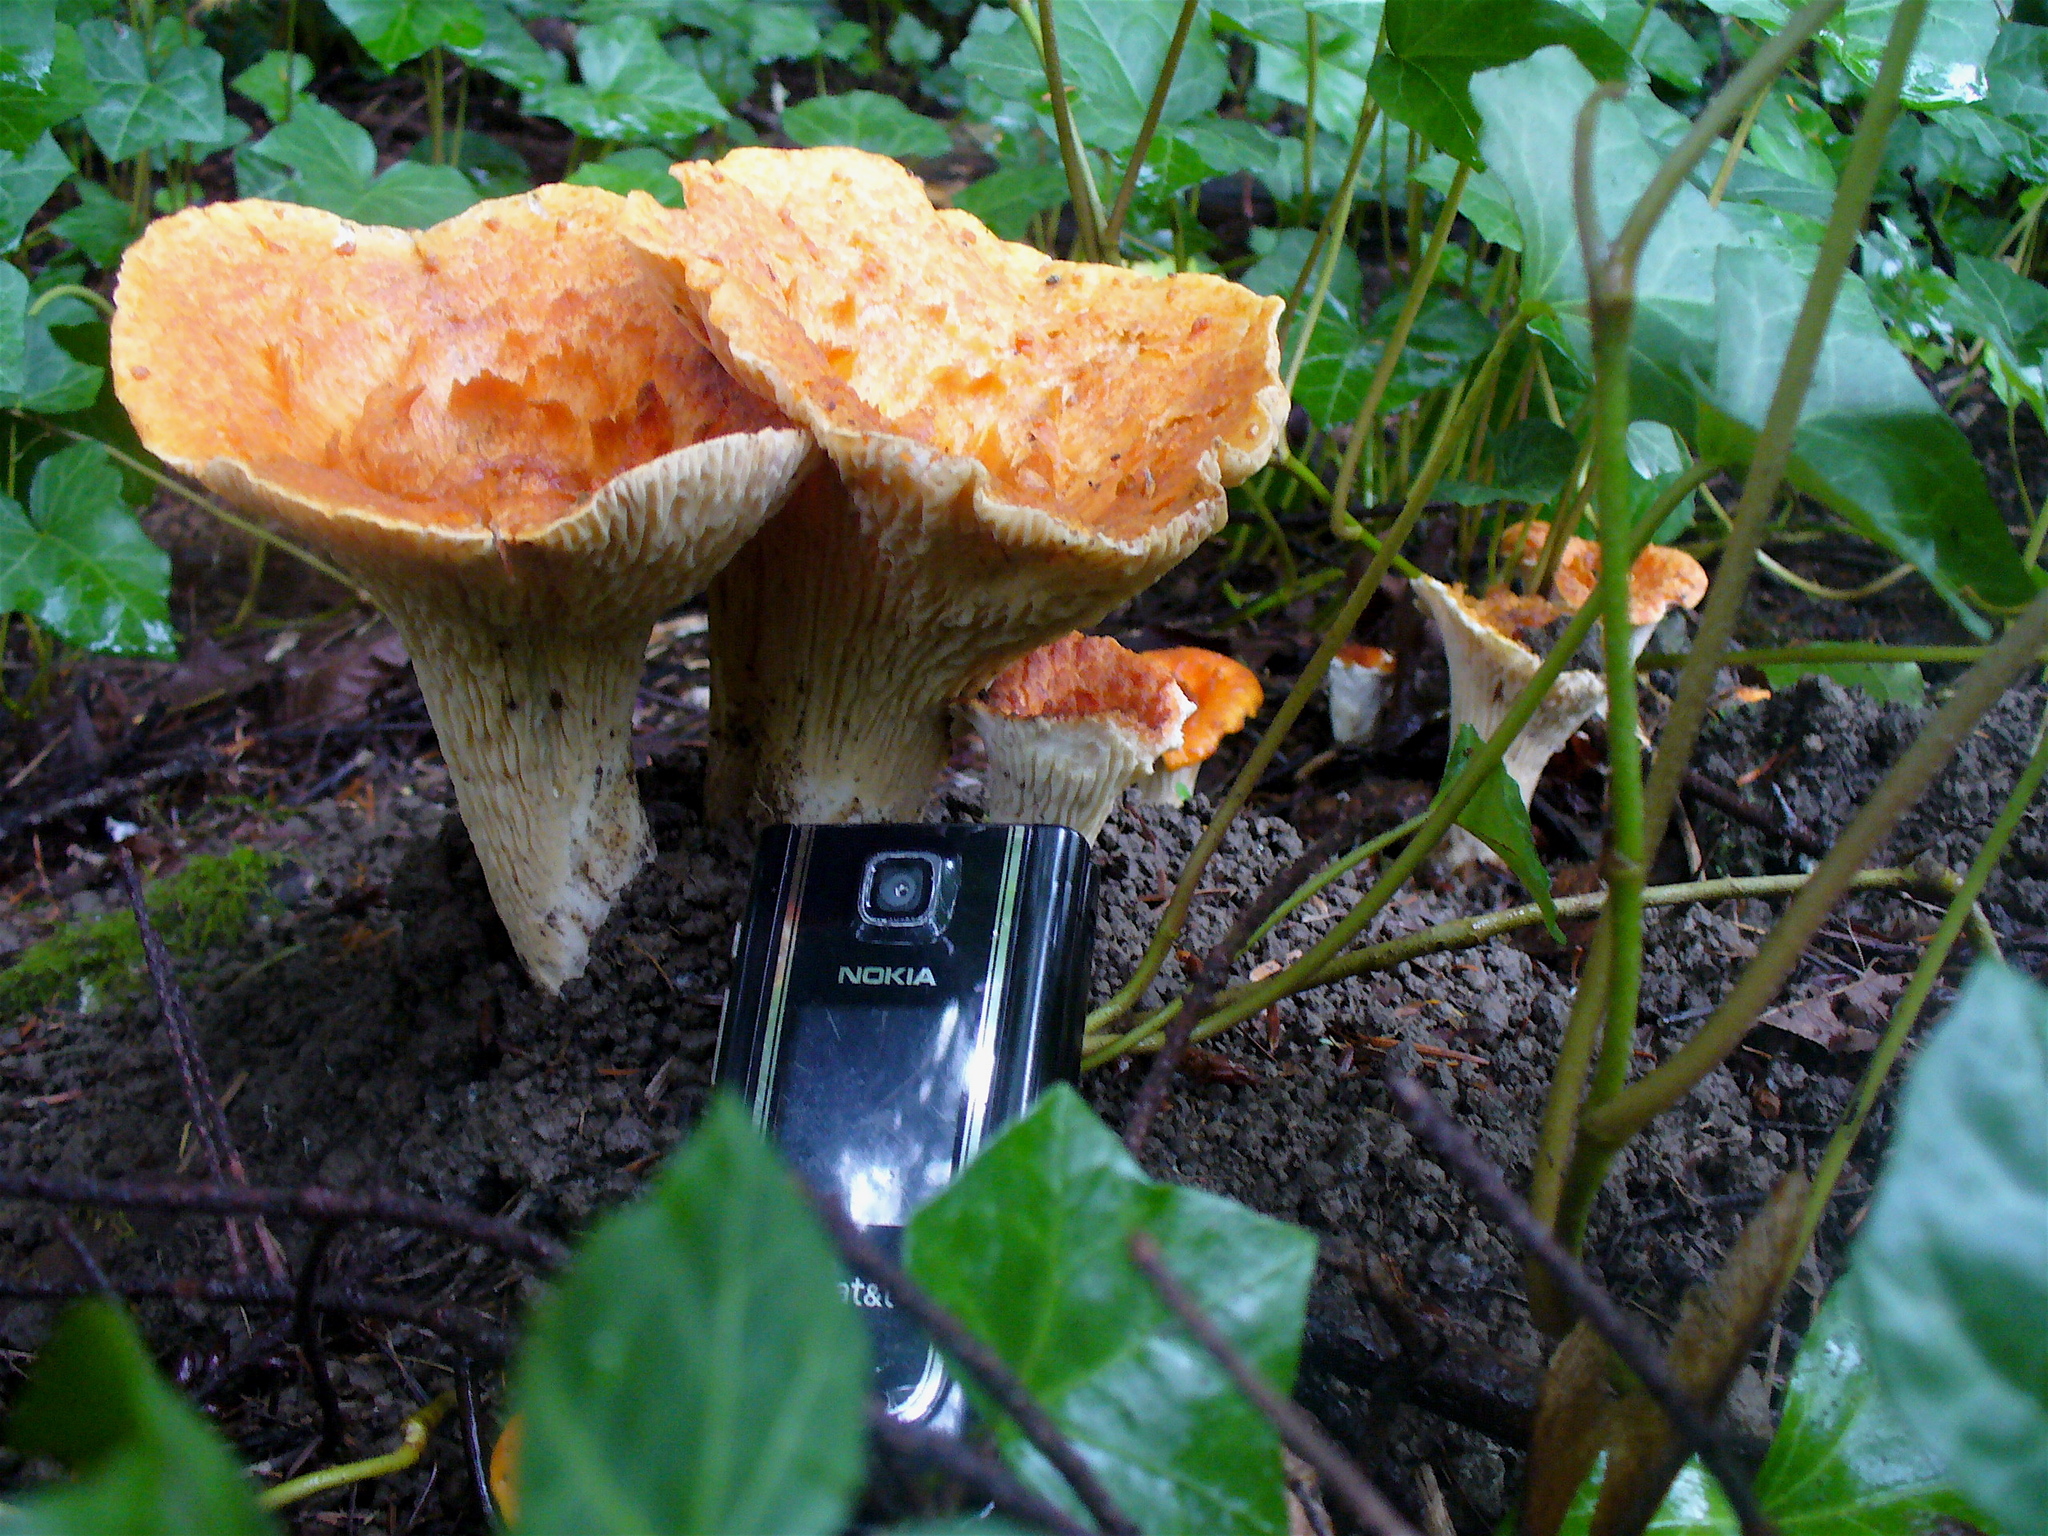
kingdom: Fungi
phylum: Basidiomycota
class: Agaricomycetes
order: Gomphales
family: Gomphaceae
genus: Turbinellus
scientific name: Turbinellus floccosus
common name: Scaly chanterelle
